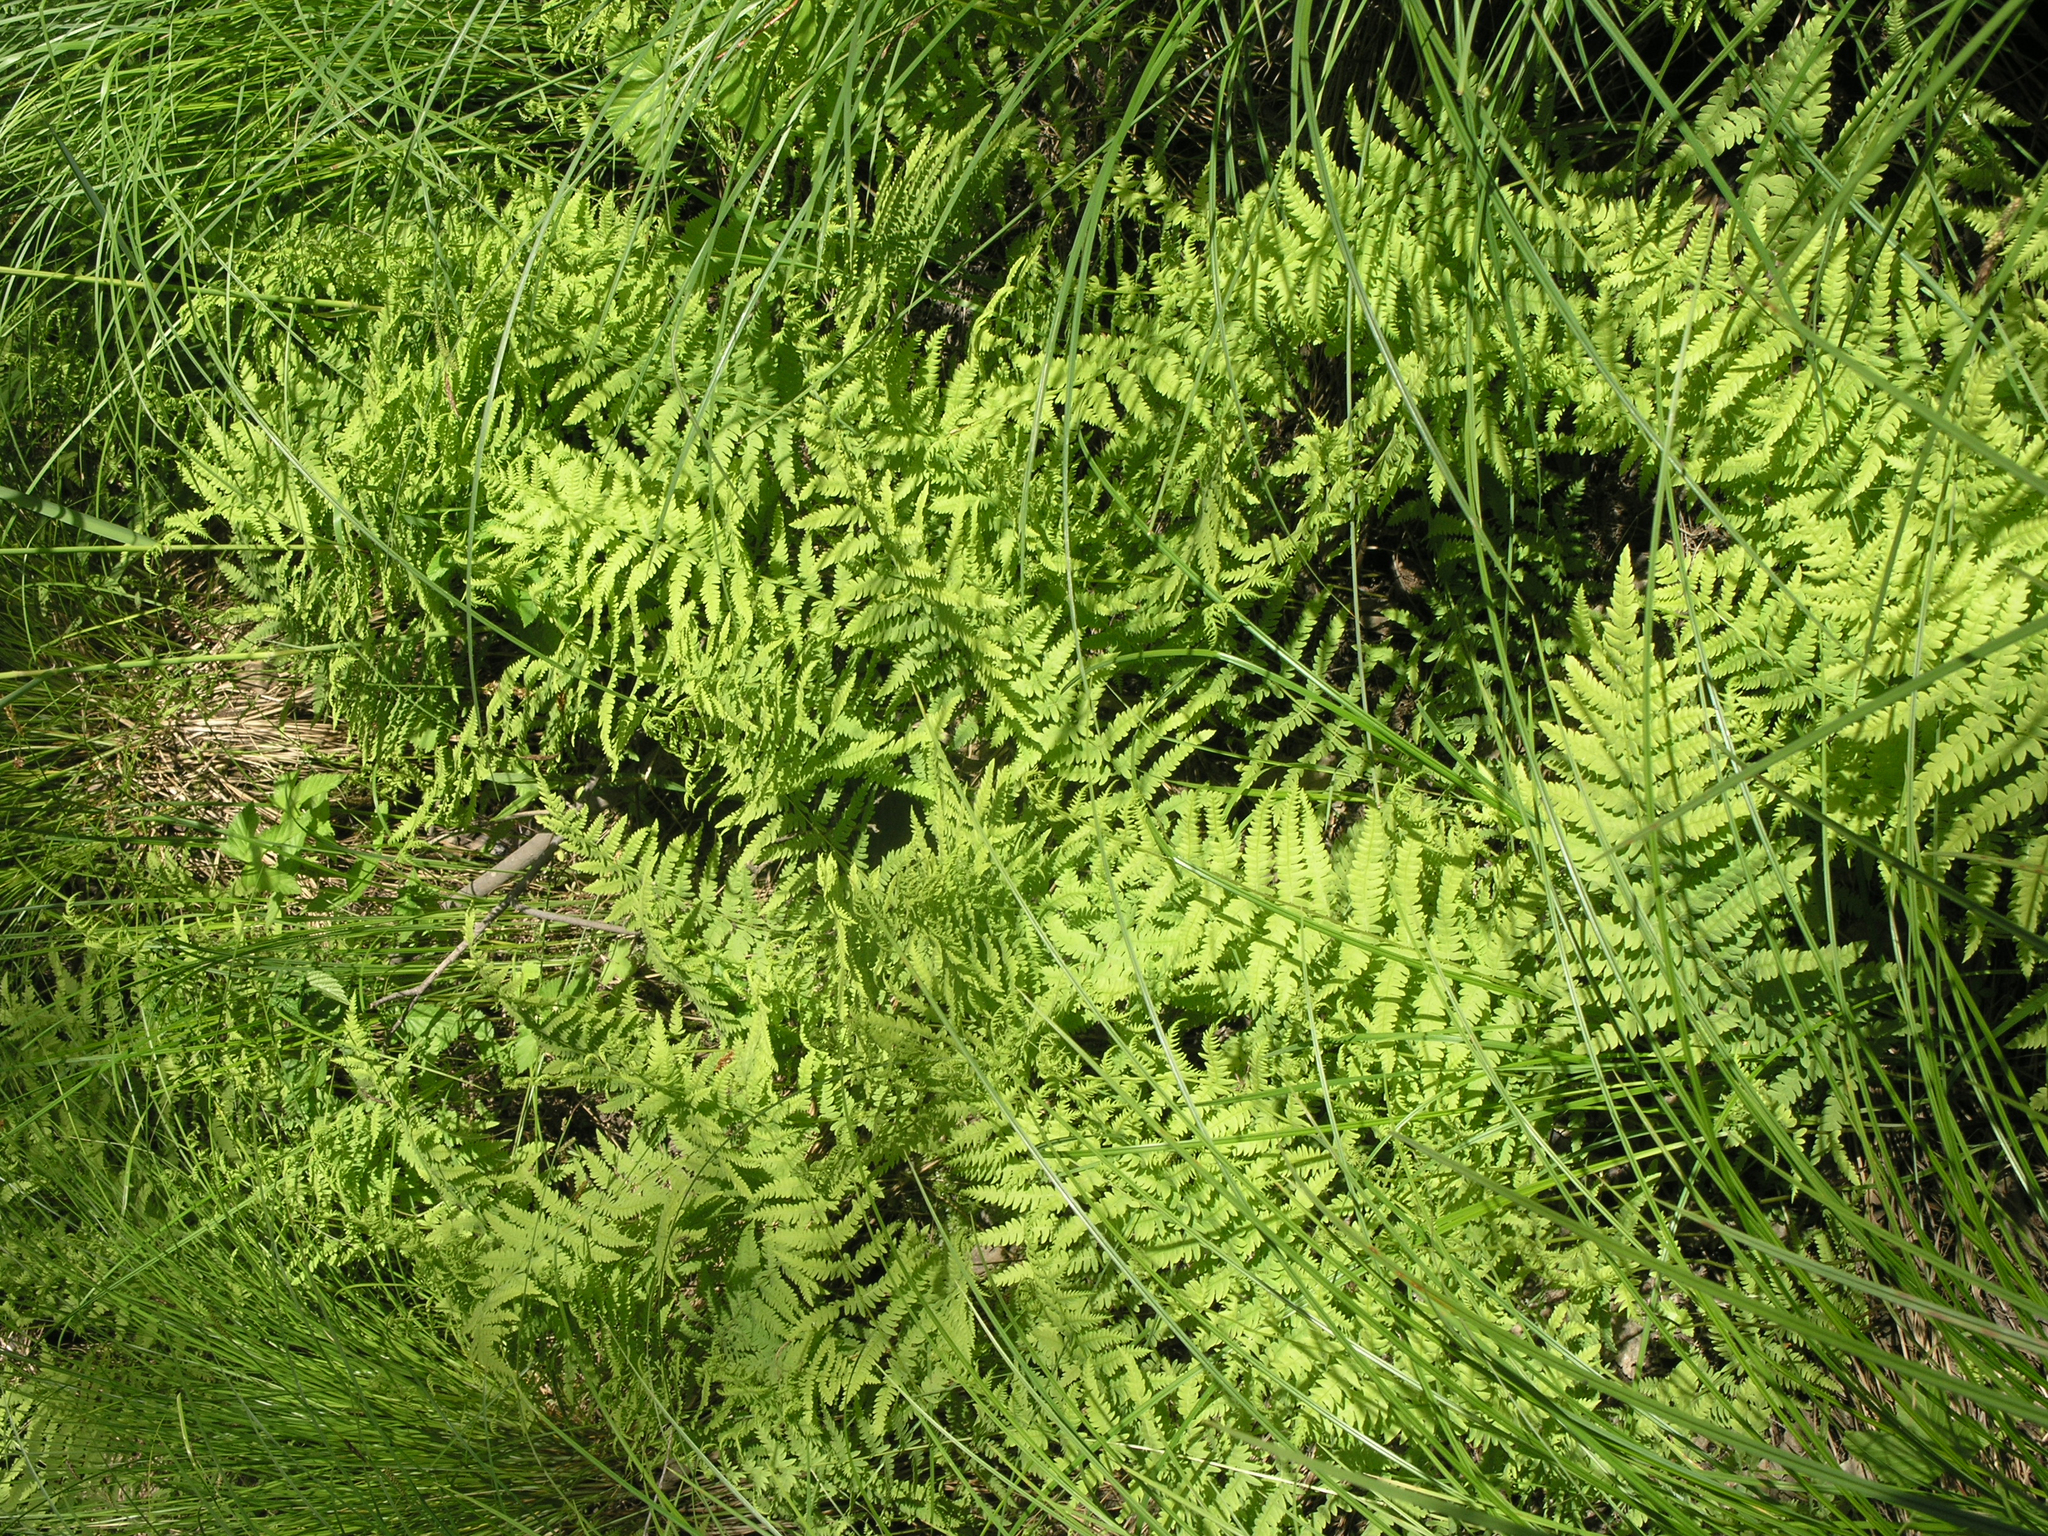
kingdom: Plantae
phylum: Tracheophyta
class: Polypodiopsida
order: Polypodiales
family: Thelypteridaceae
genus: Thelypteris
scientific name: Thelypteris palustris
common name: Marsh fern
